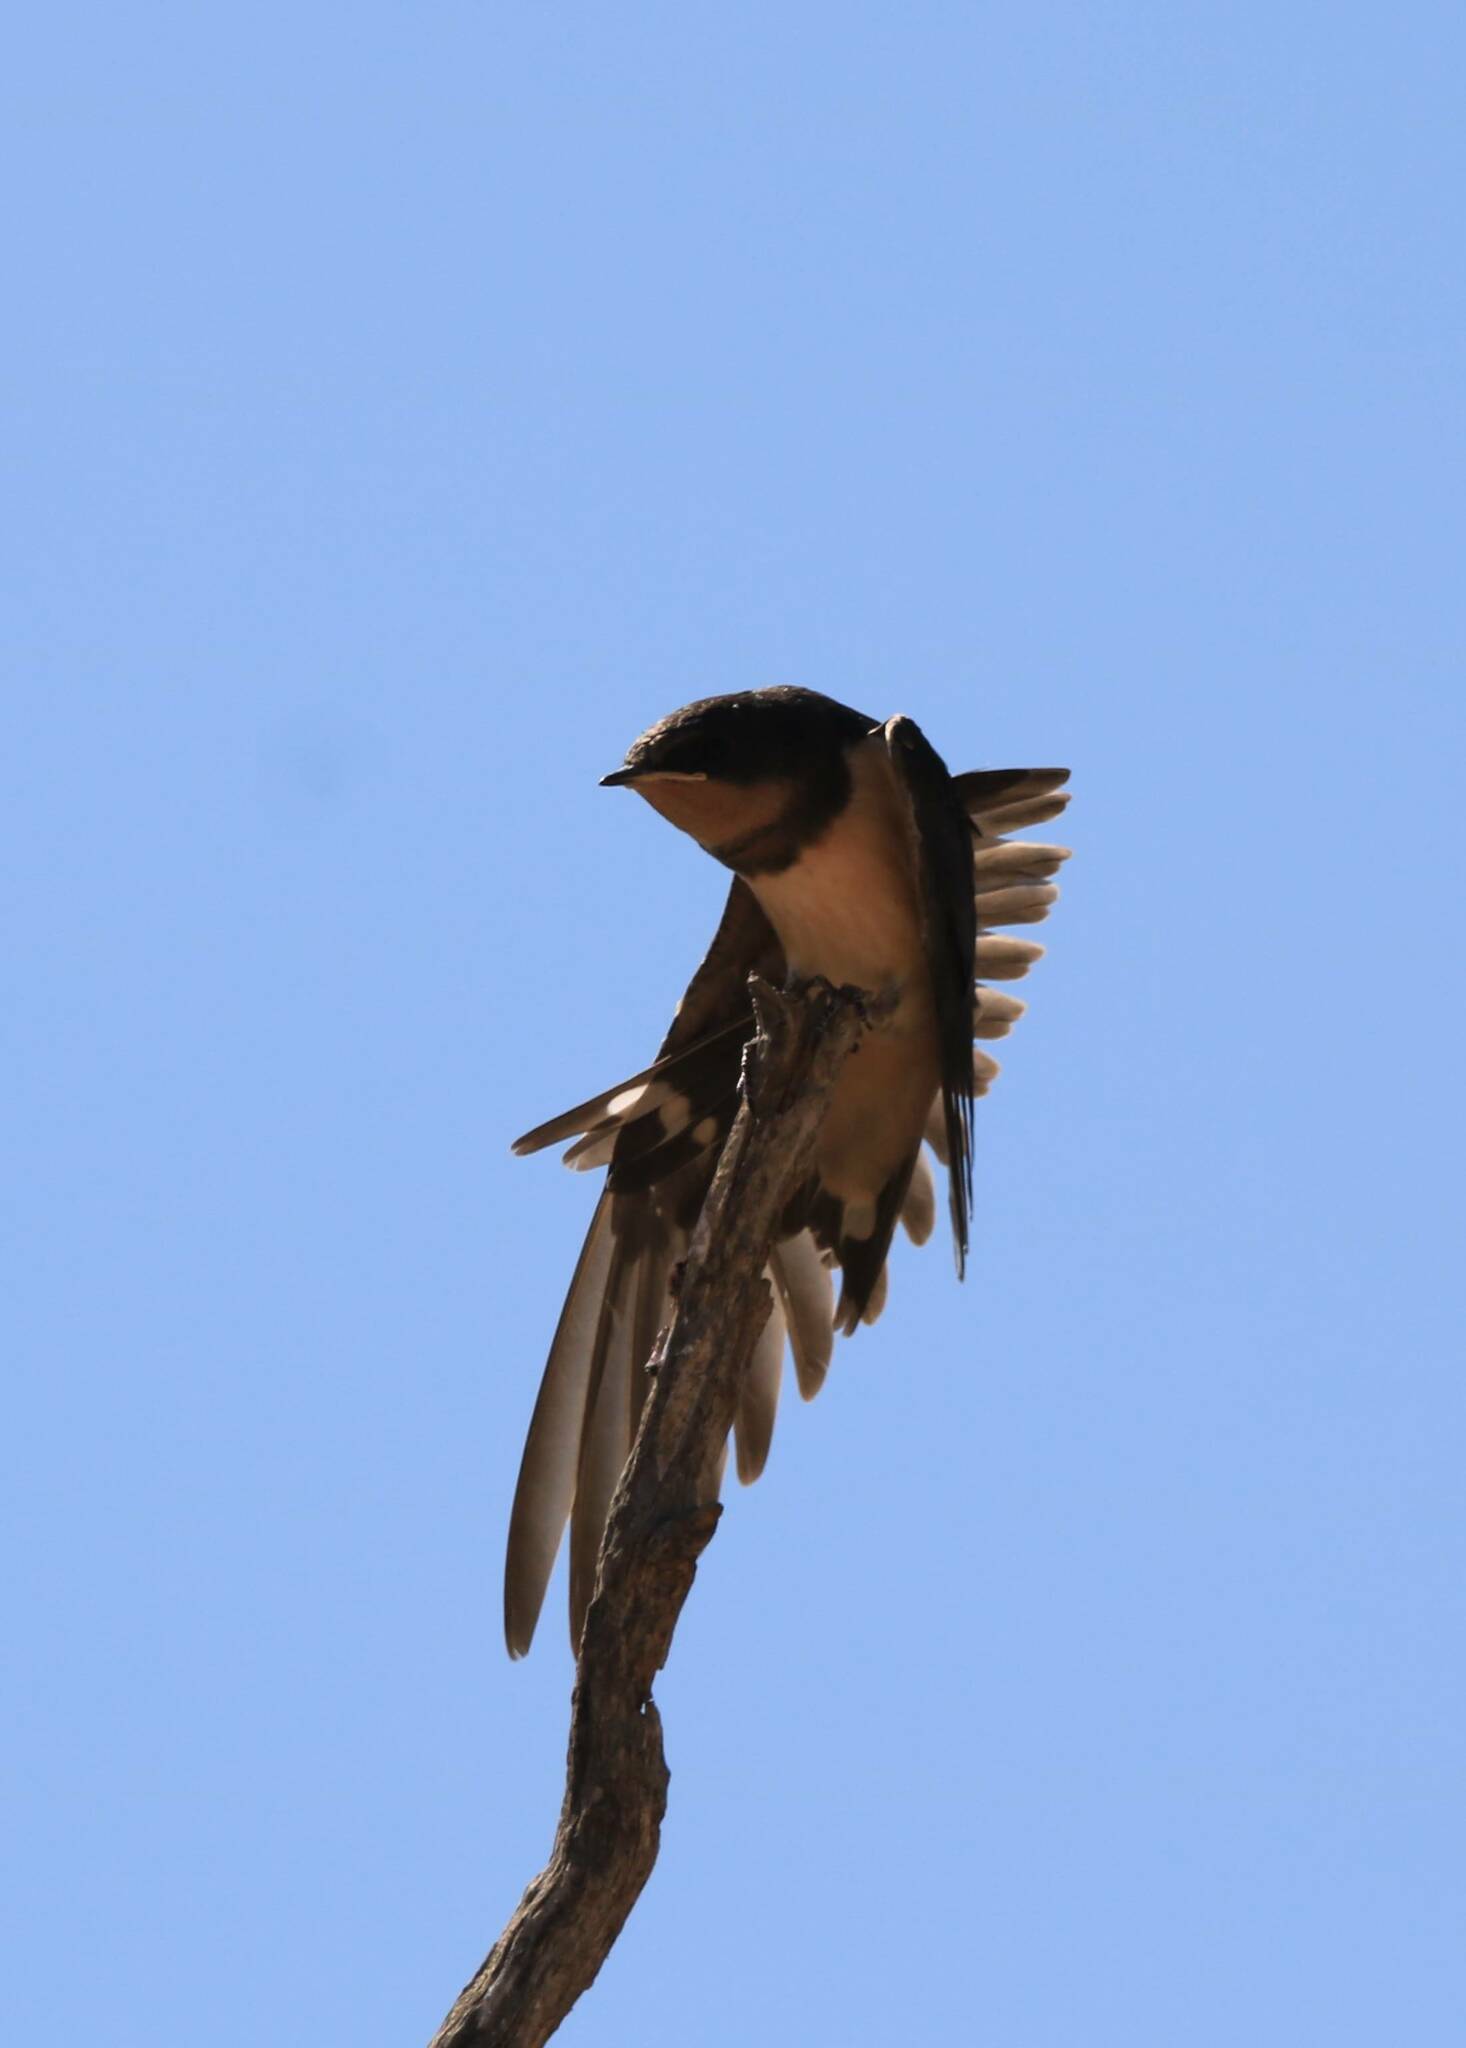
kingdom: Animalia
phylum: Chordata
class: Aves
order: Passeriformes
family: Hirundinidae
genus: Hirundo
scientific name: Hirundo rustica
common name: Barn swallow
